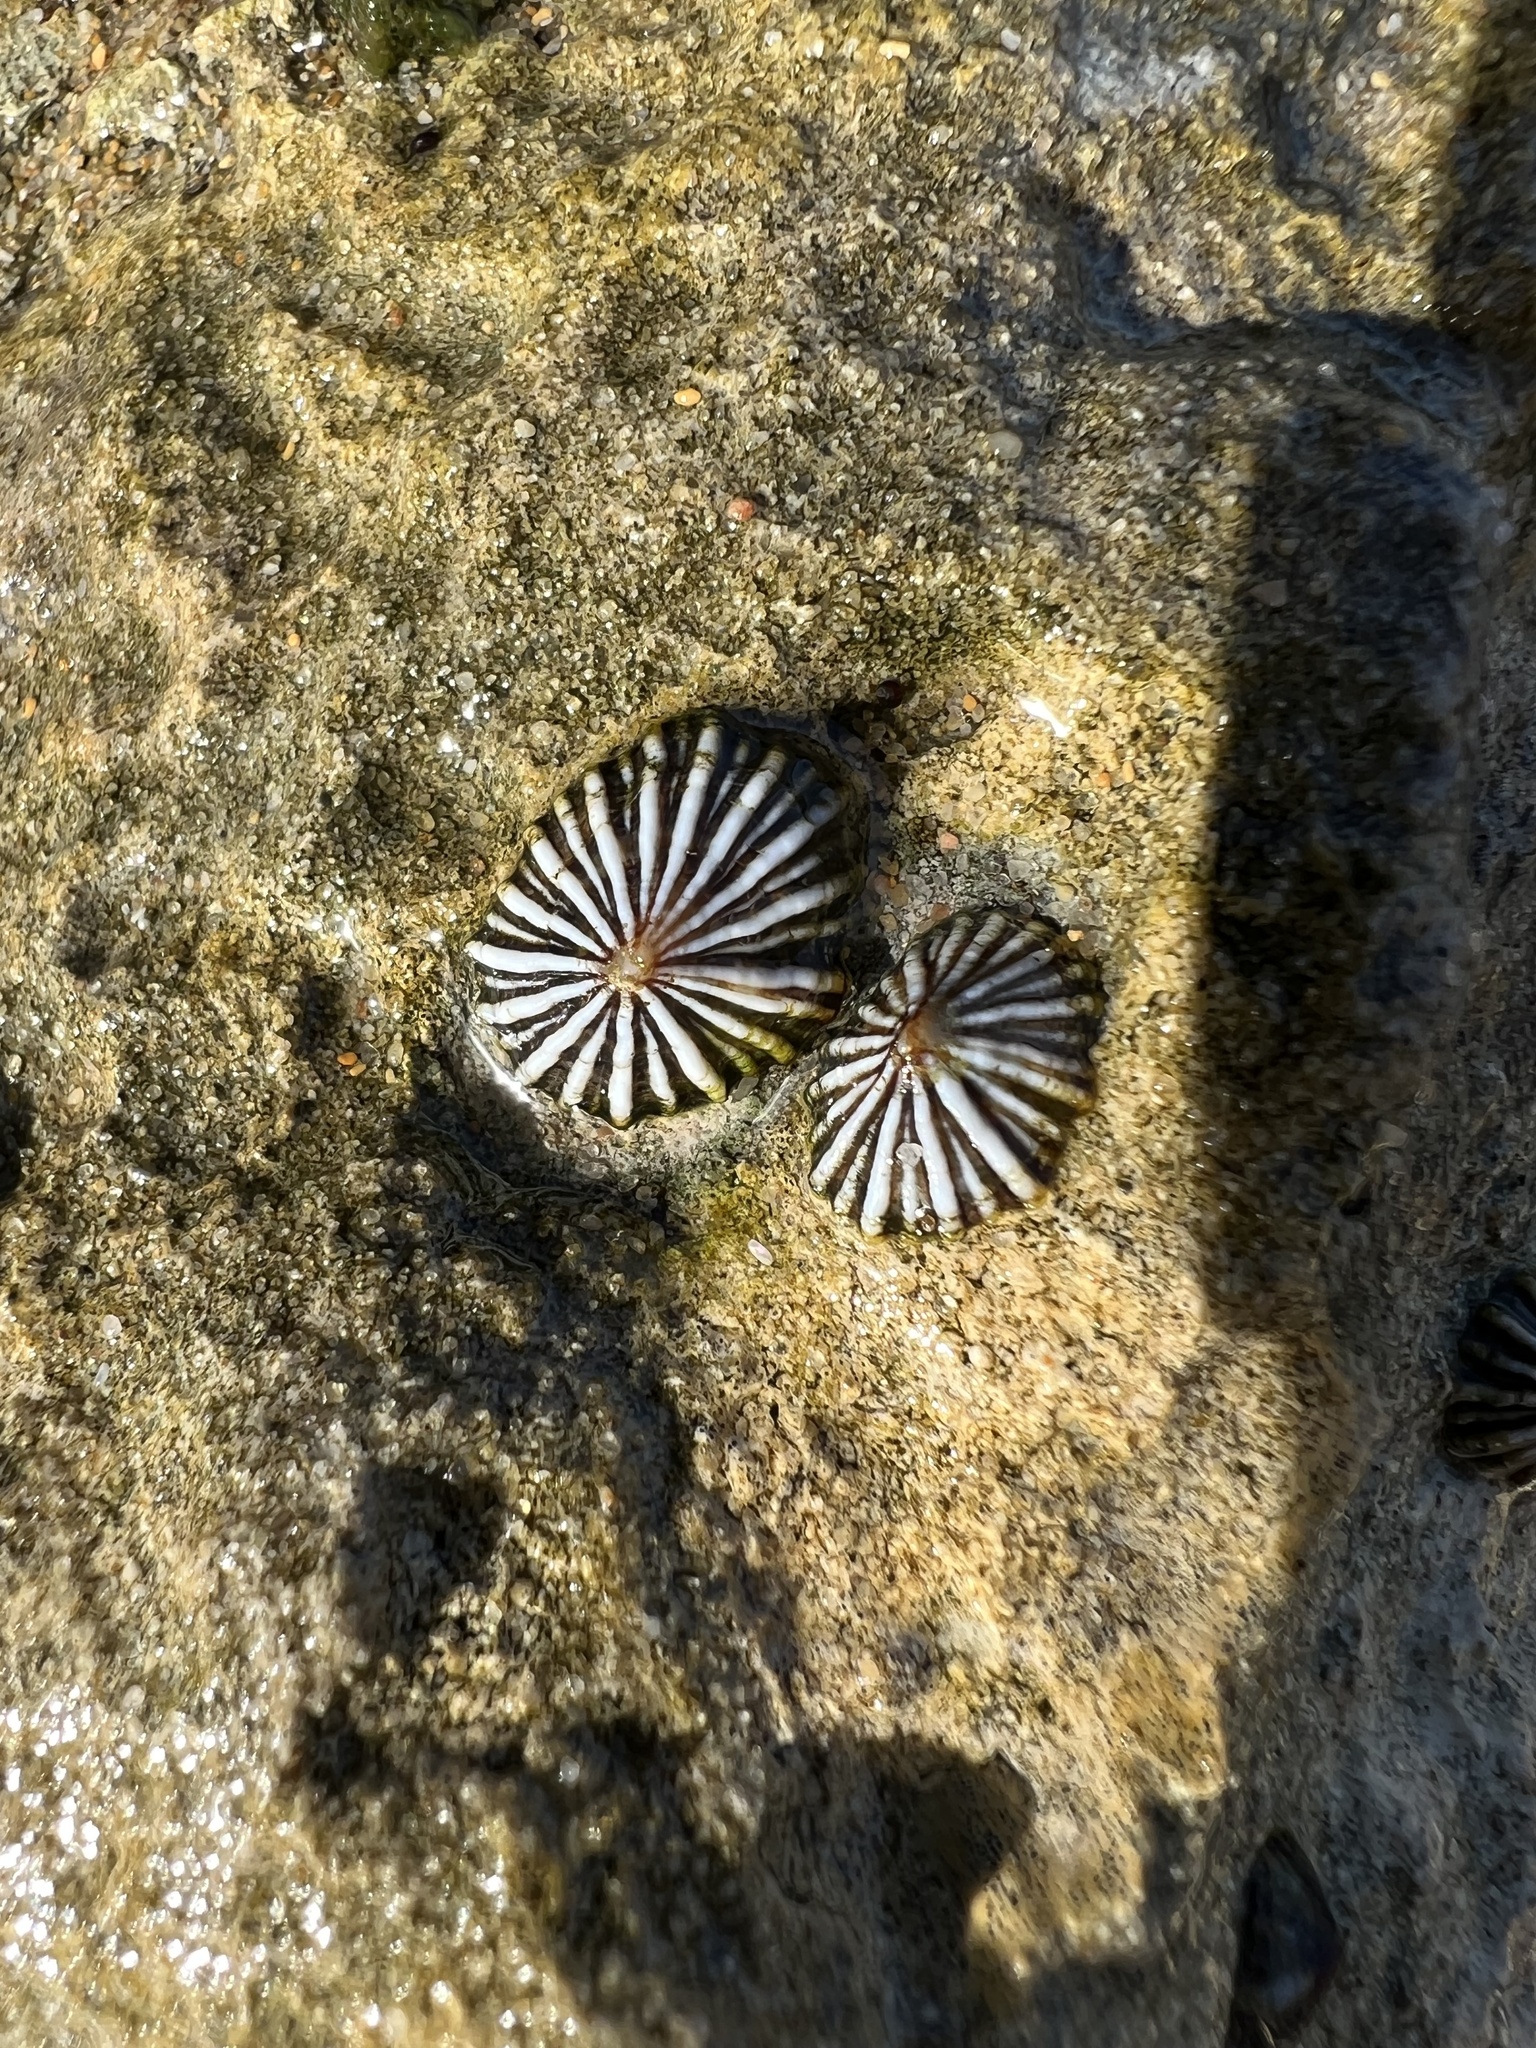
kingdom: Animalia
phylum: Mollusca
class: Gastropoda
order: Siphonariida
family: Siphonariidae
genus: Siphonaria
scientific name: Siphonaria diemenensis
